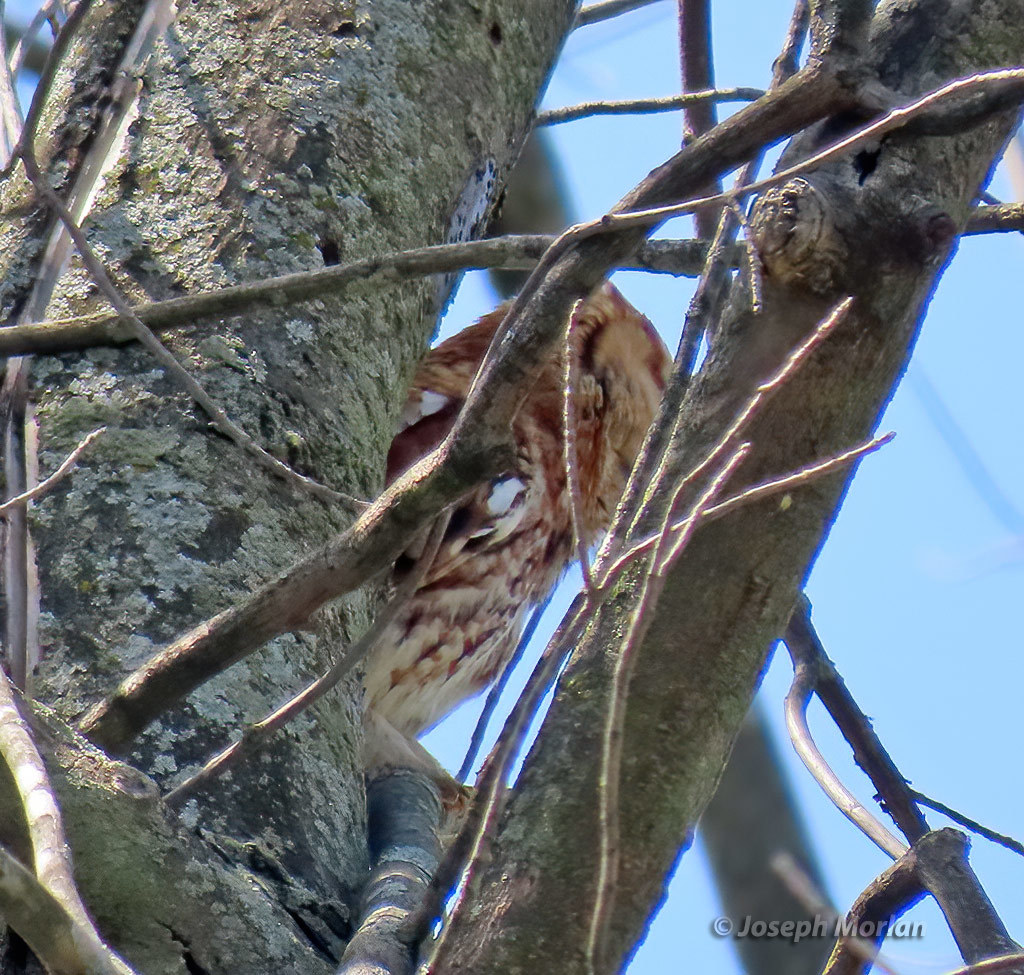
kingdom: Animalia
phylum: Chordata
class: Aves
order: Strigiformes
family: Strigidae
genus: Megascops
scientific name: Megascops asio
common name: Eastern screech-owl
